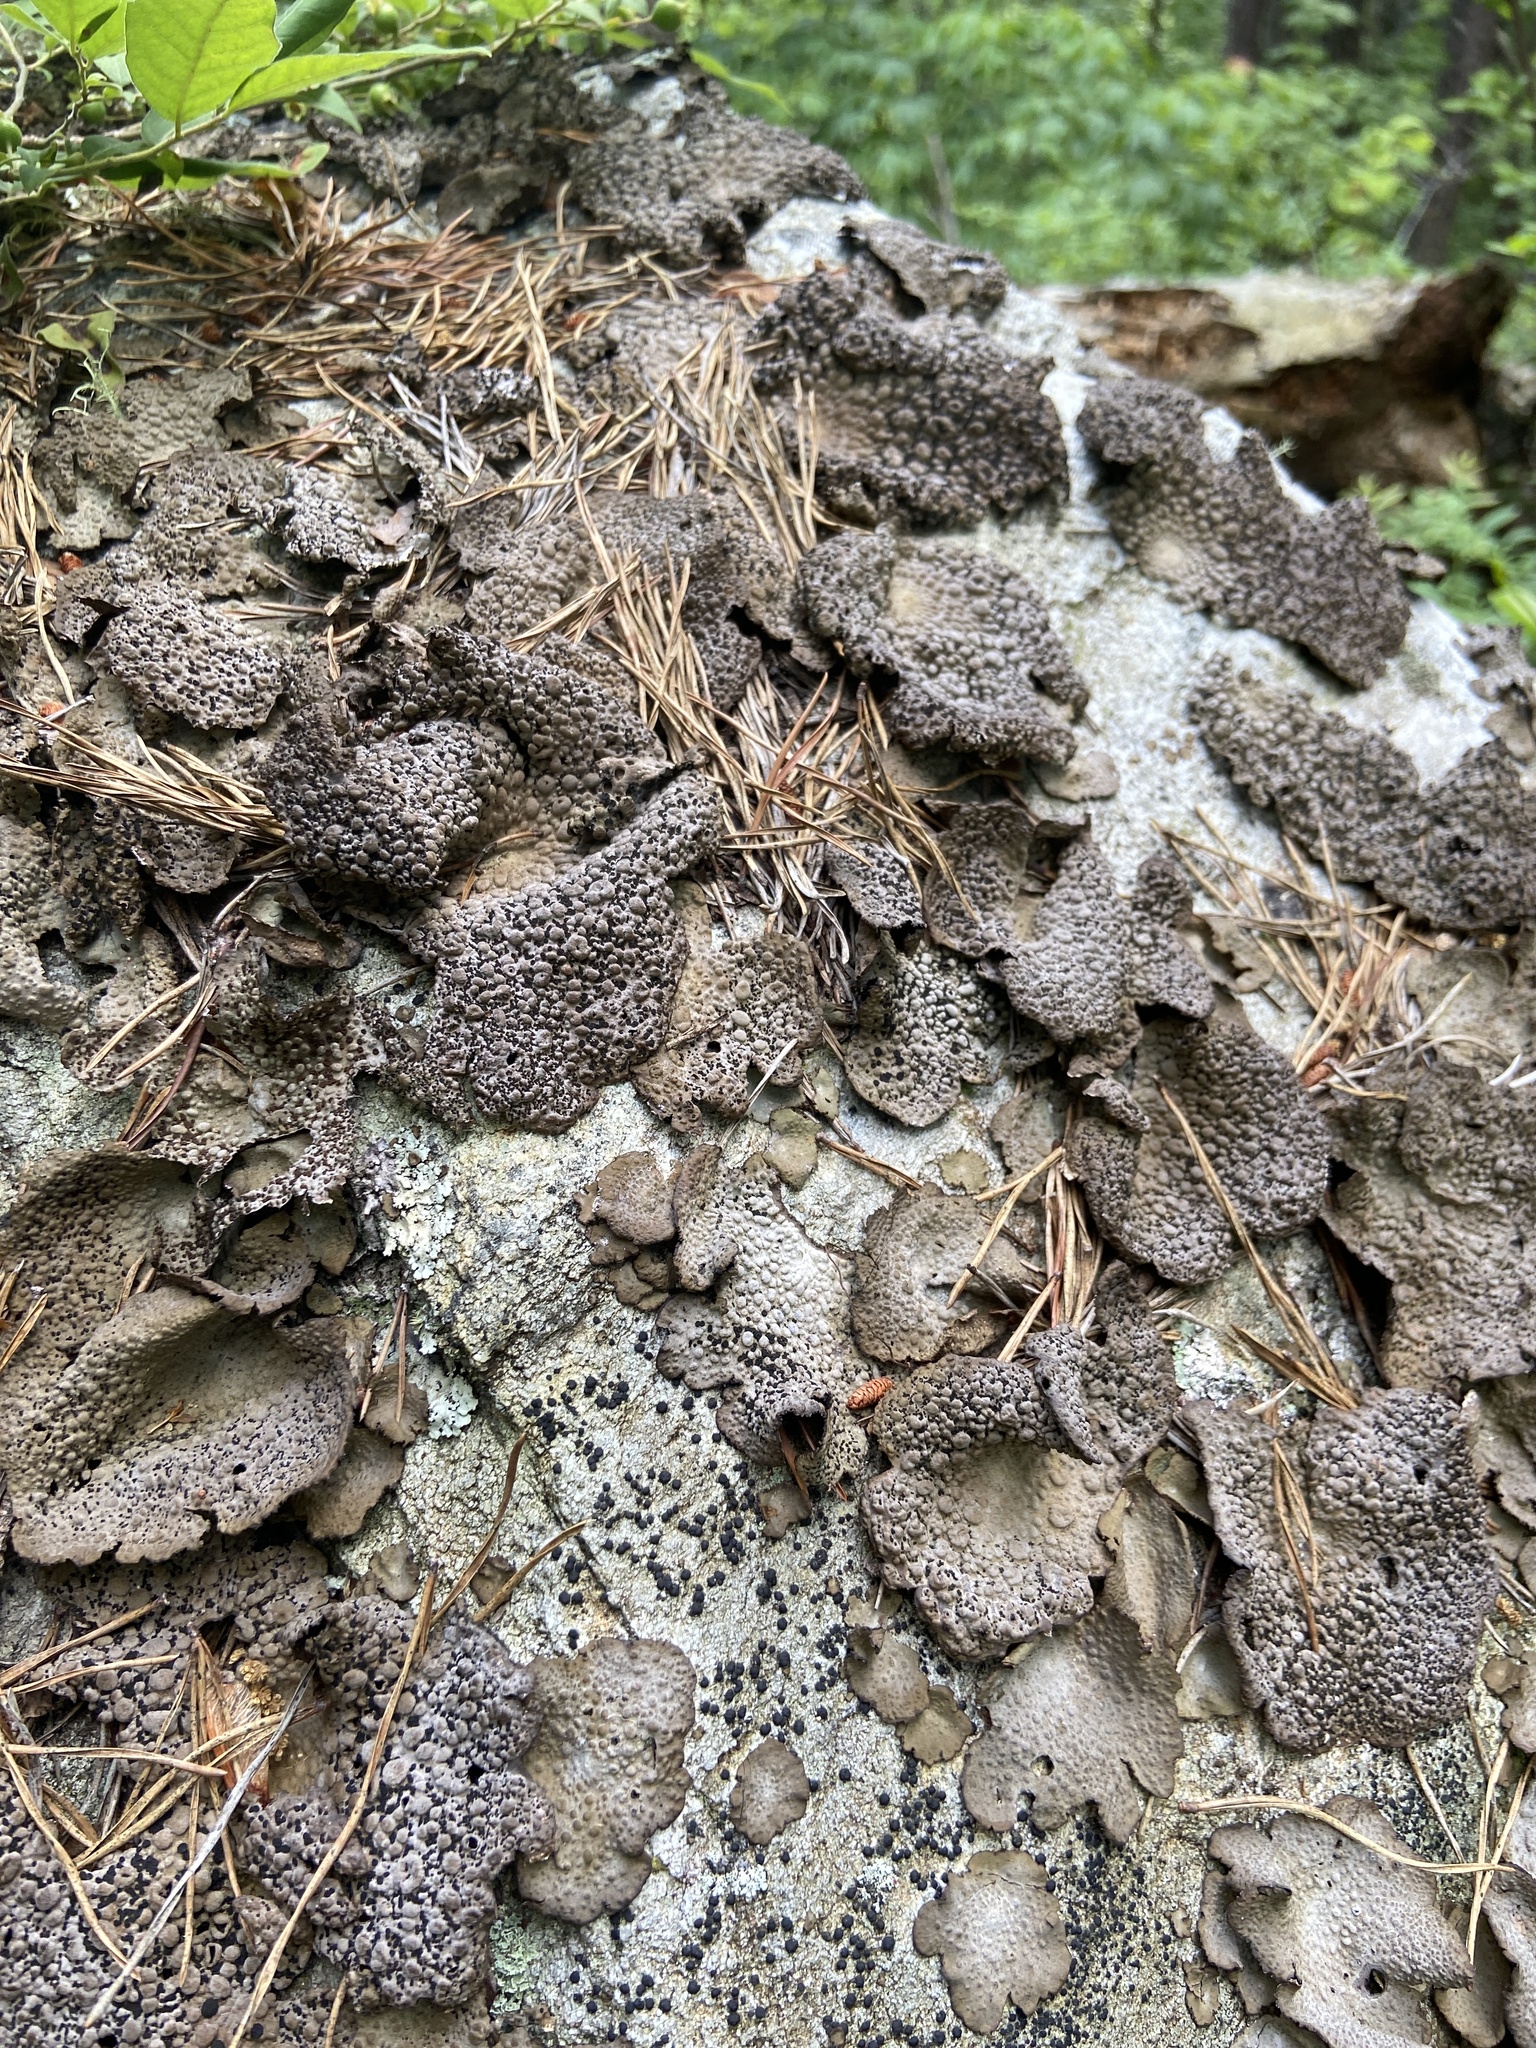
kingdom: Fungi
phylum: Ascomycota
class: Lecanoromycetes
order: Umbilicariales
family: Umbilicariaceae
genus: Lasallia
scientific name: Lasallia papulosa
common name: Common toadskin lichen
